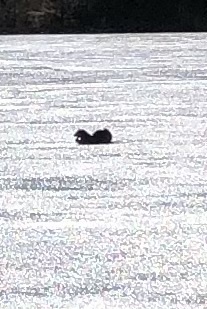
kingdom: Animalia
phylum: Chordata
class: Mammalia
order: Carnivora
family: Mustelidae
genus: Lontra
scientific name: Lontra canadensis
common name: North american river otter
